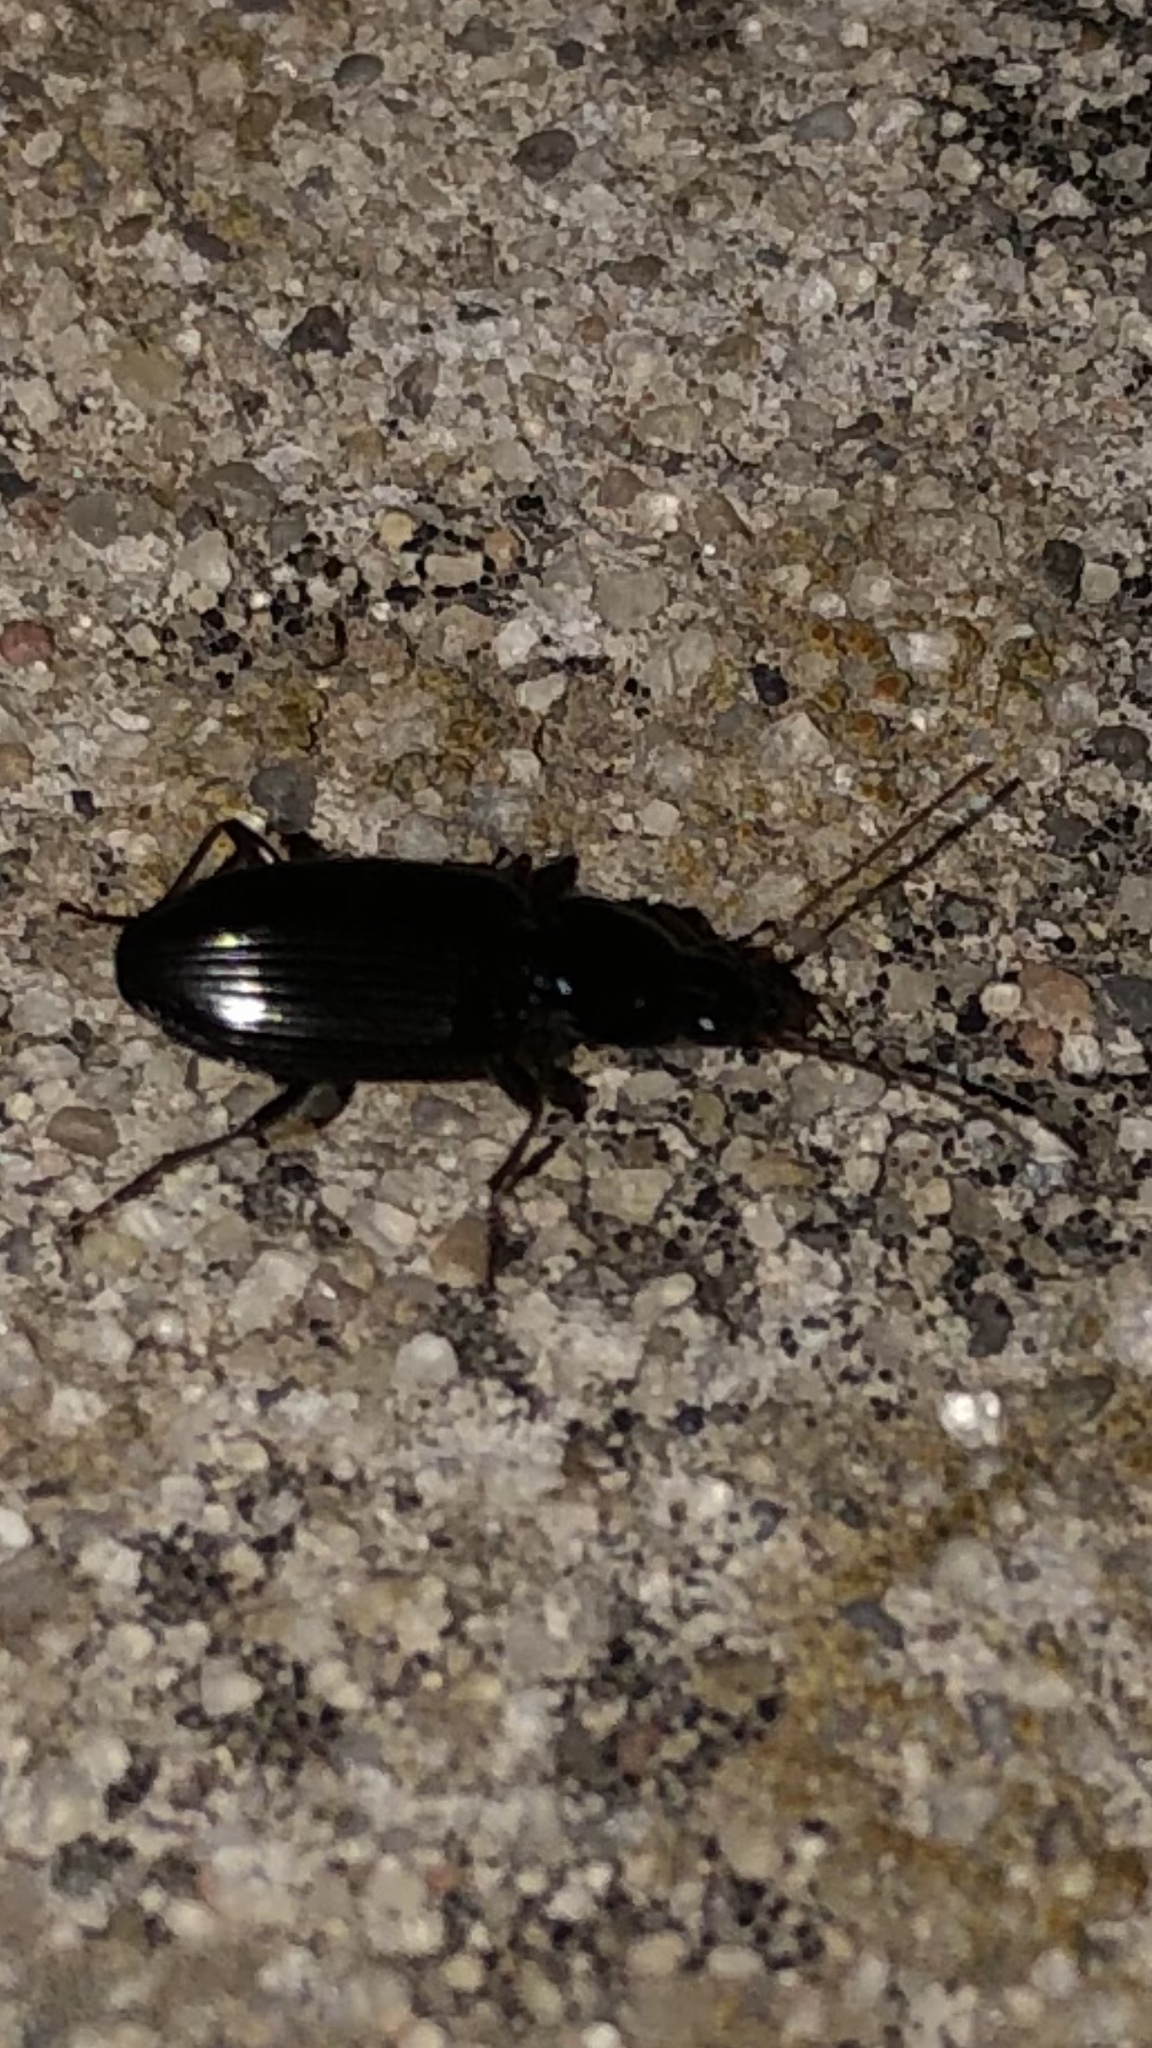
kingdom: Animalia
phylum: Arthropoda
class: Insecta
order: Coleoptera
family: Carabidae
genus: Agonum
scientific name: Agonum punctiforme
